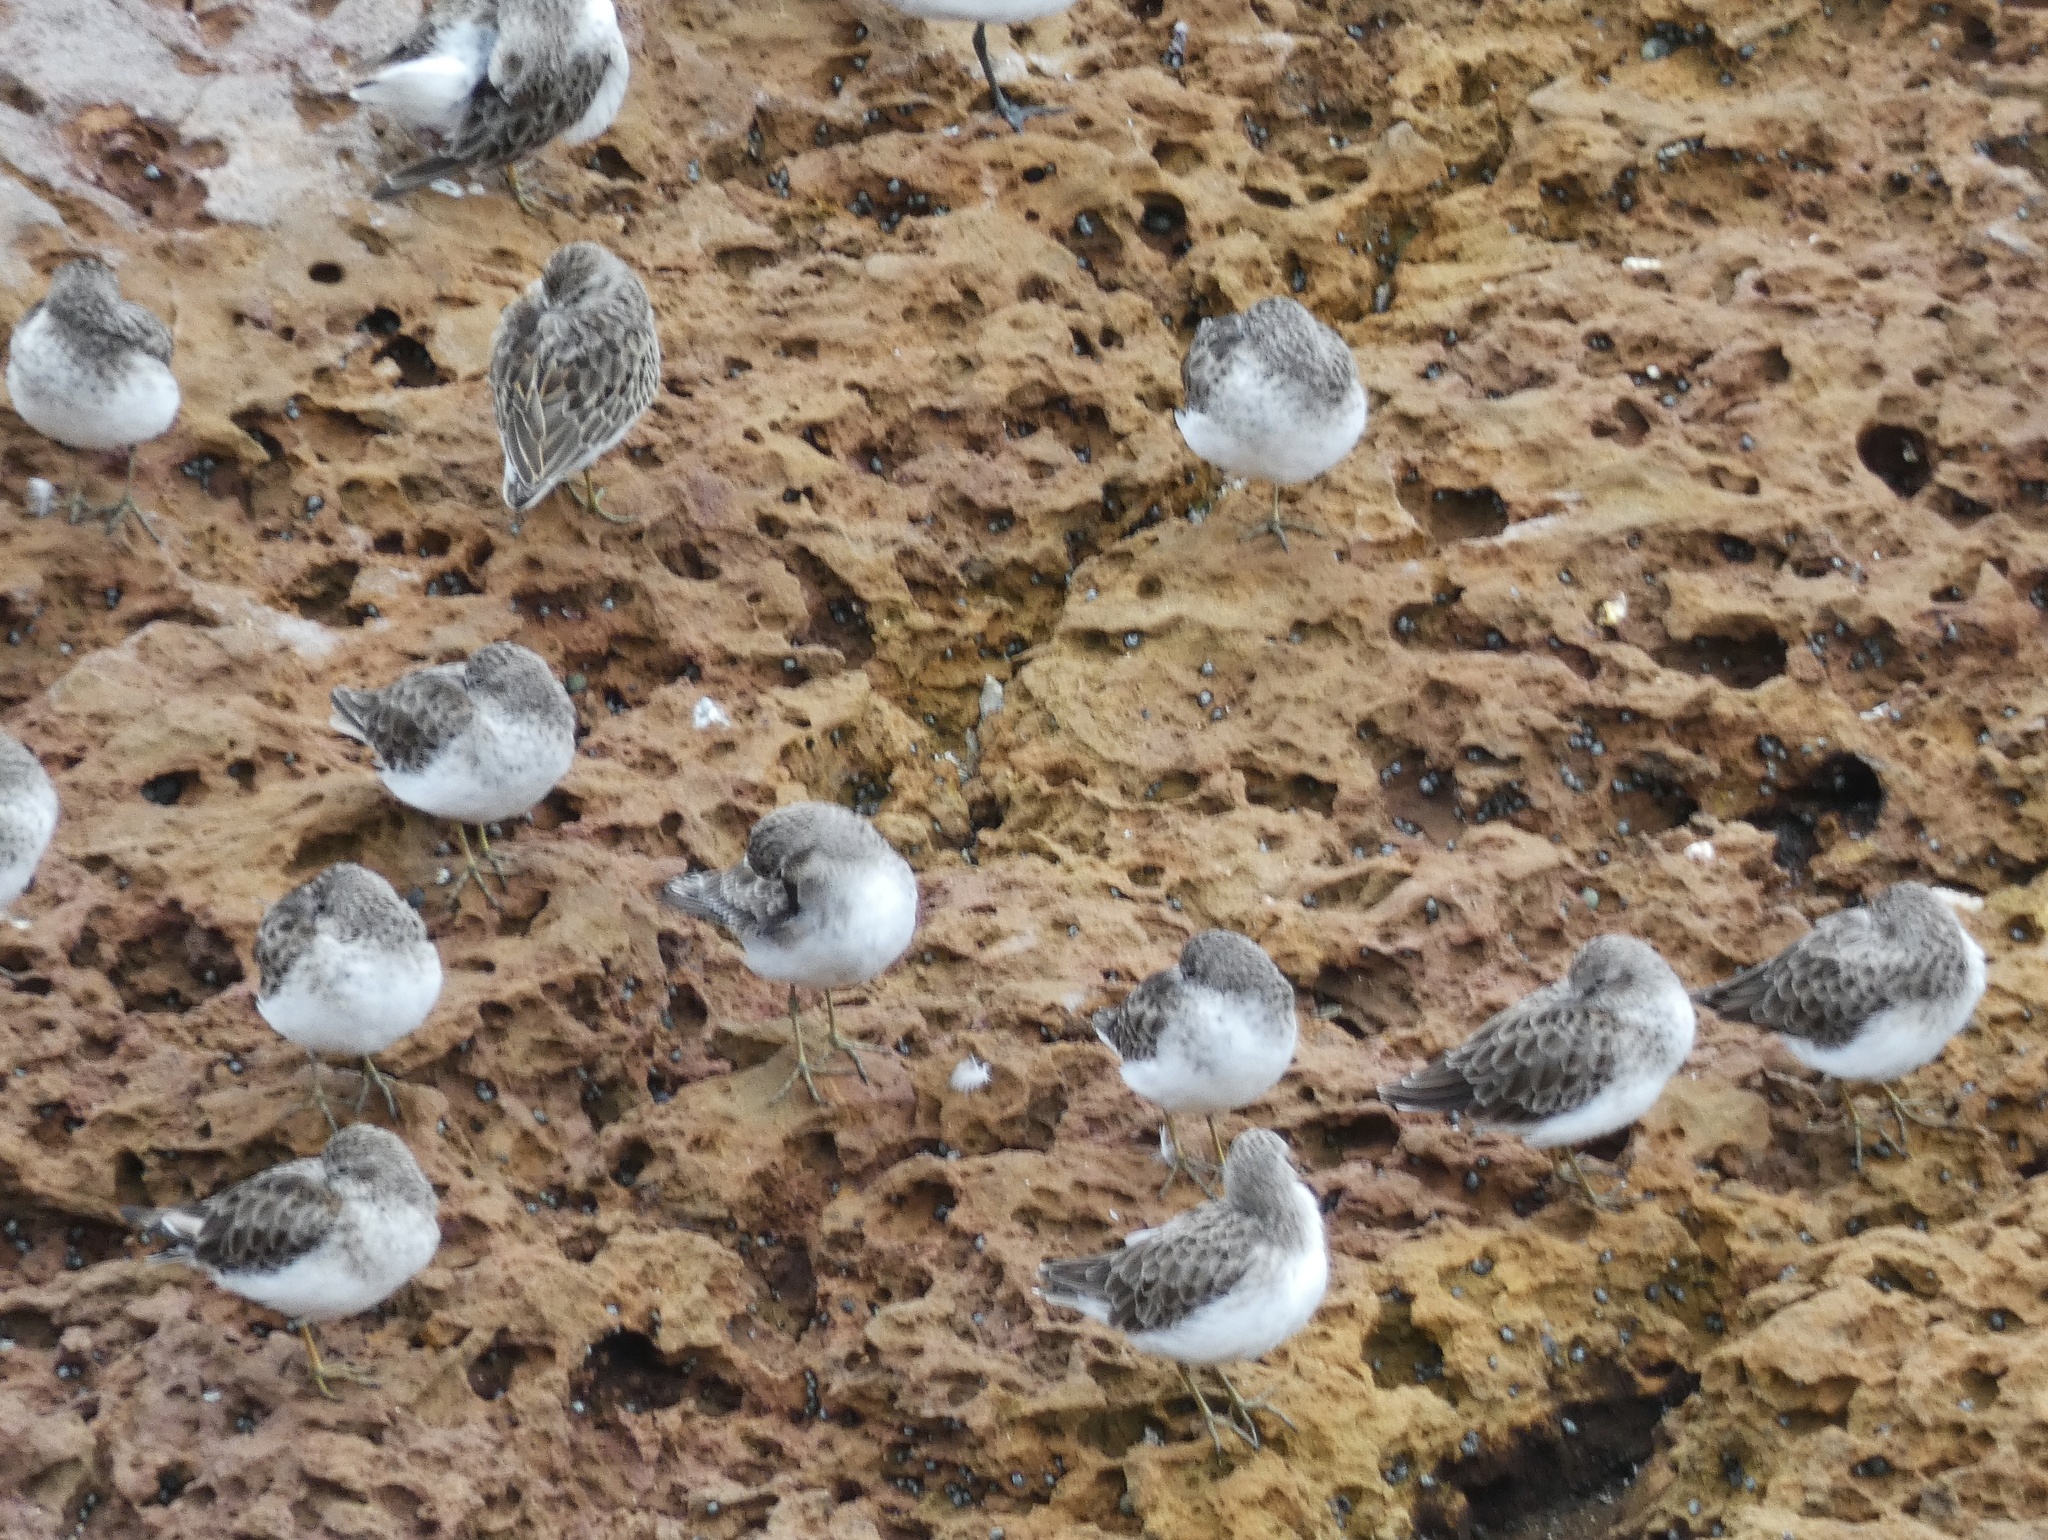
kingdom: Animalia
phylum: Chordata
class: Aves
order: Charadriiformes
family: Scolopacidae
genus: Calidris
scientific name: Calidris minutilla
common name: Least sandpiper
